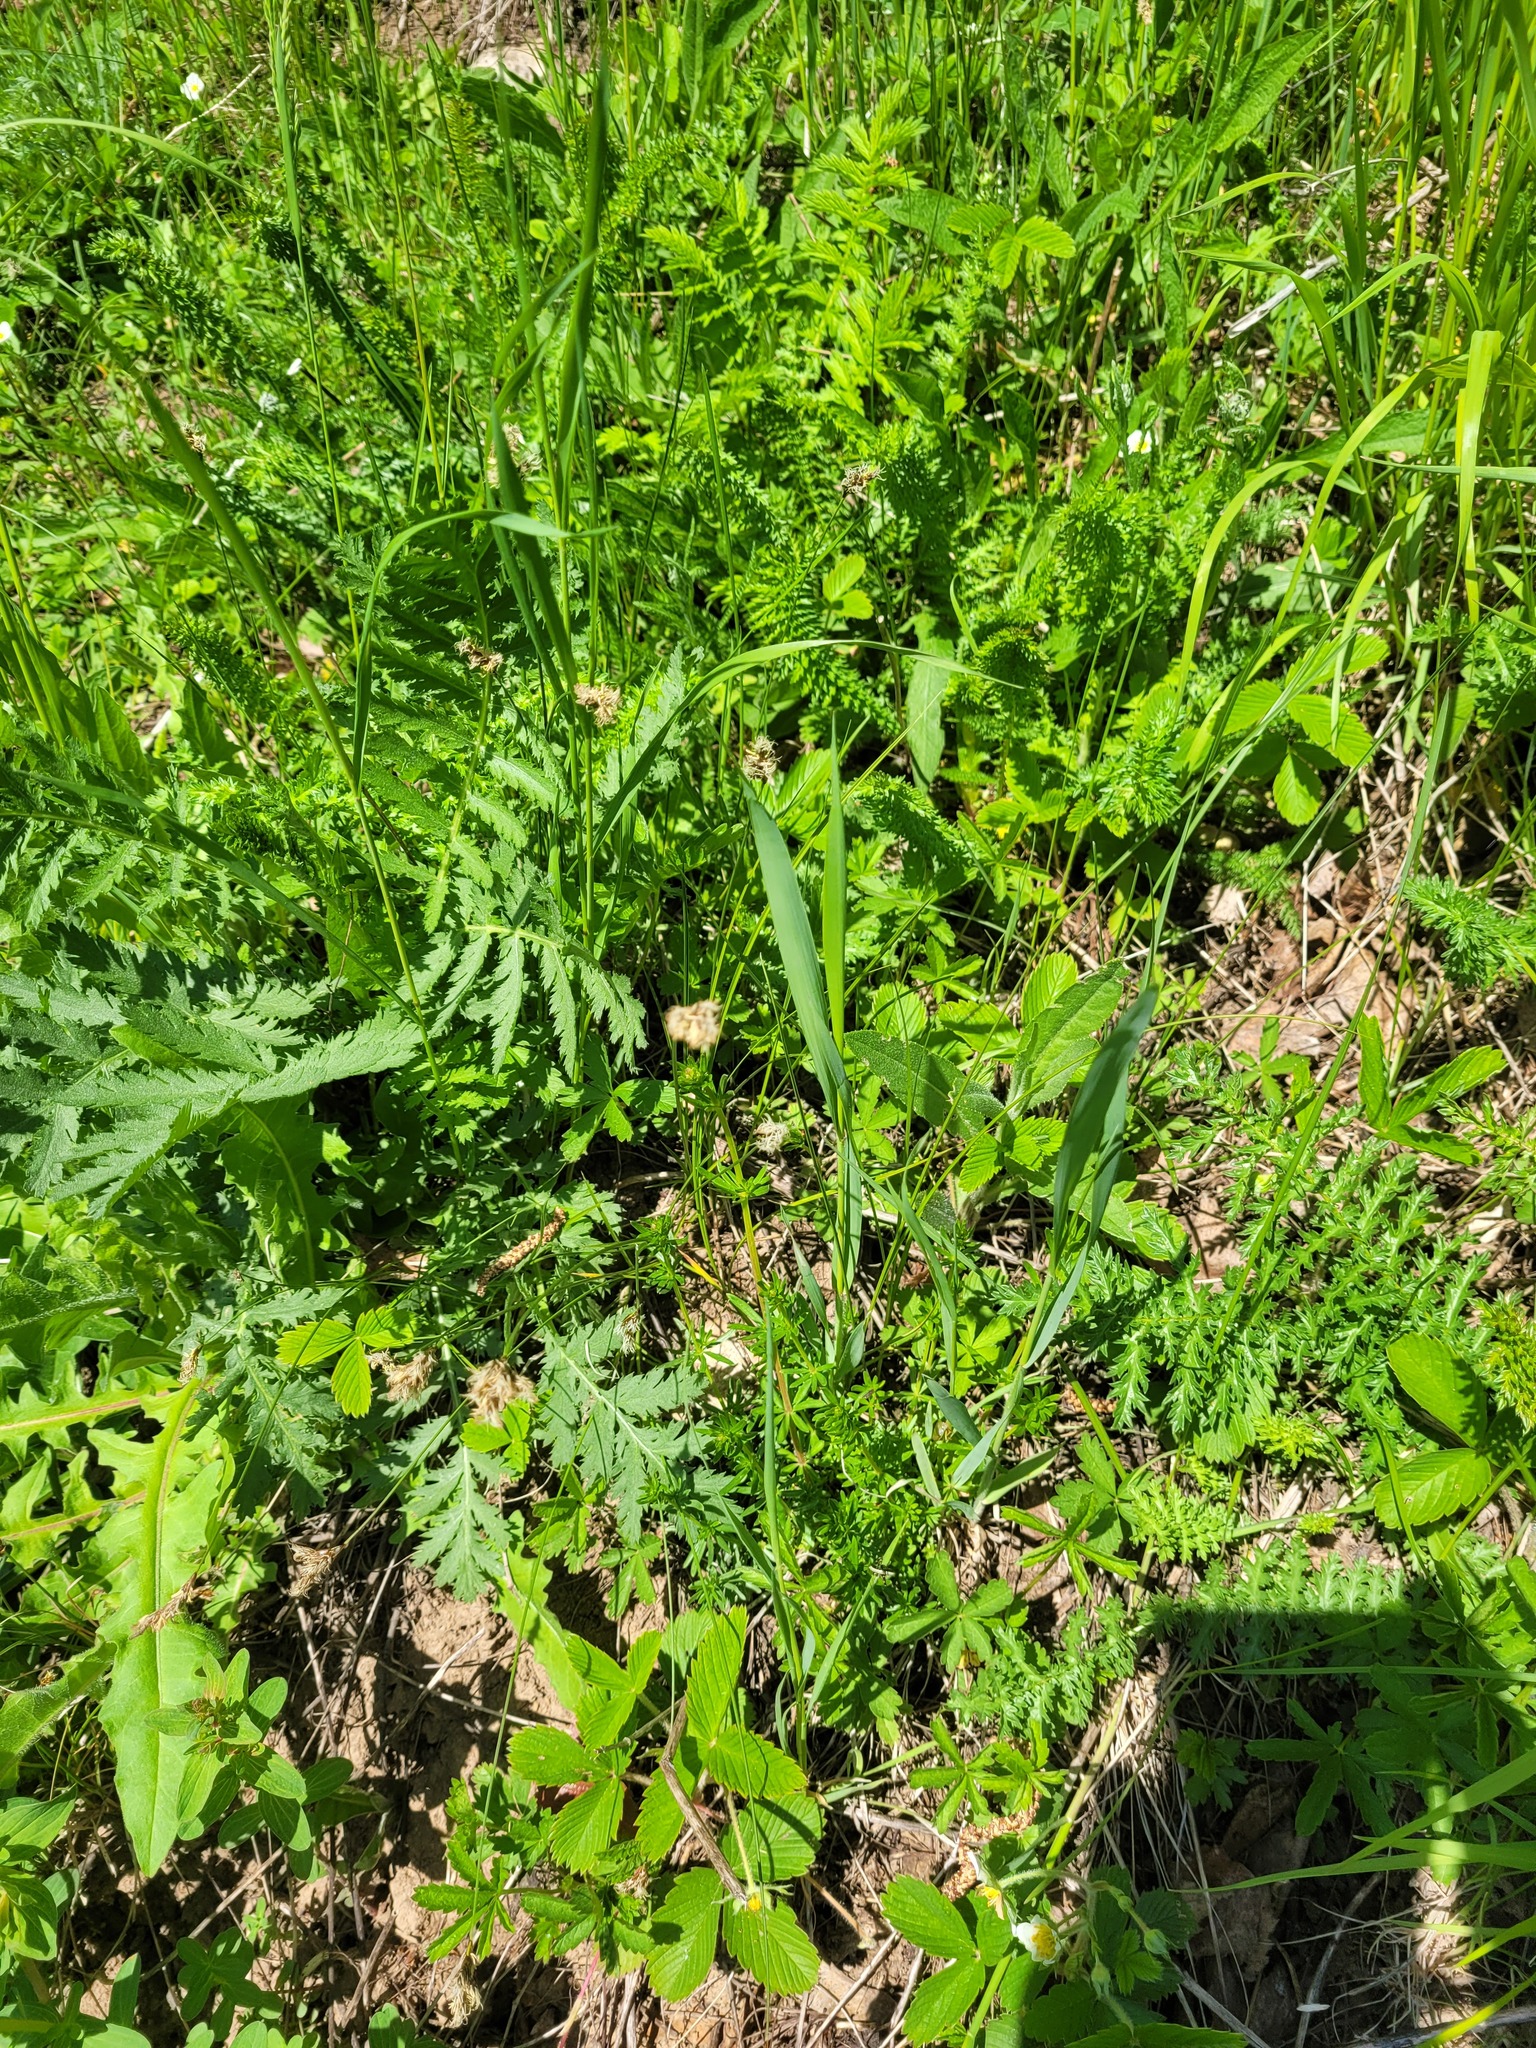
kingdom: Plantae
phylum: Tracheophyta
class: Liliopsida
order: Poales
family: Cyperaceae
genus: Carex
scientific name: Carex praecox
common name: Early sedge
